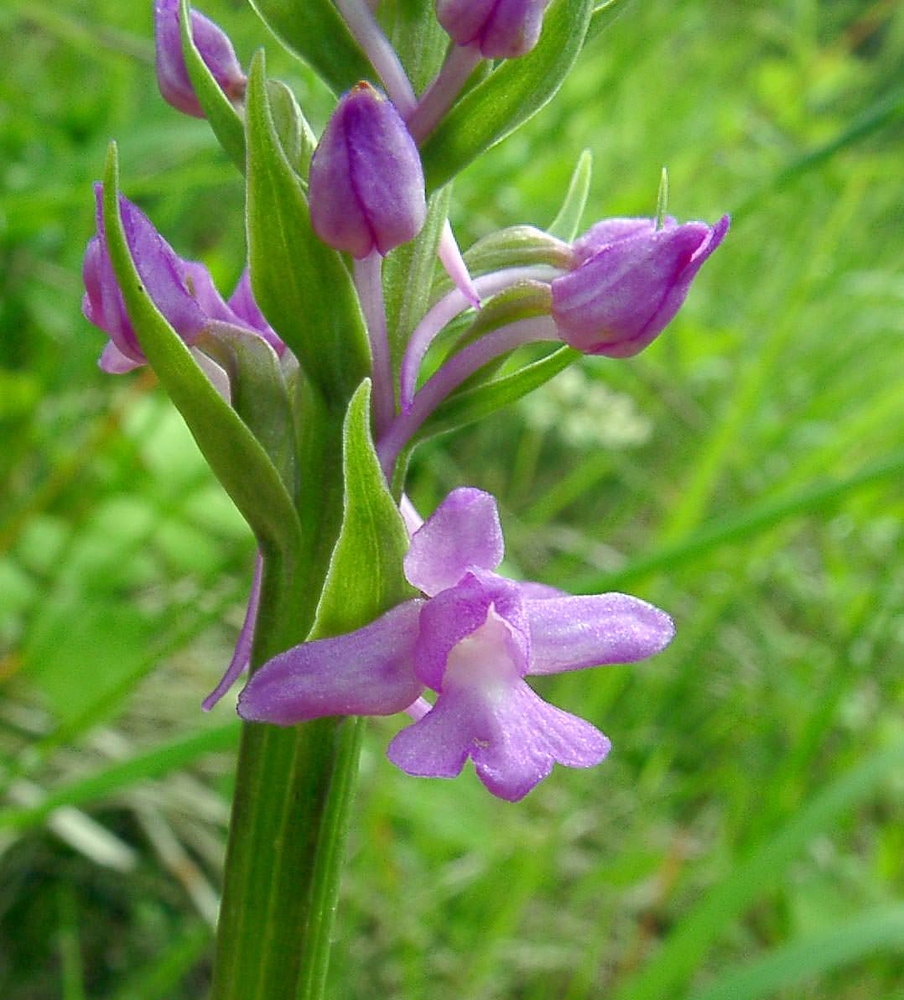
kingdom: Plantae
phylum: Tracheophyta
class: Liliopsida
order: Asparagales
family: Orchidaceae
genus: Gymnadenia
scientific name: Gymnadenia intermedia
